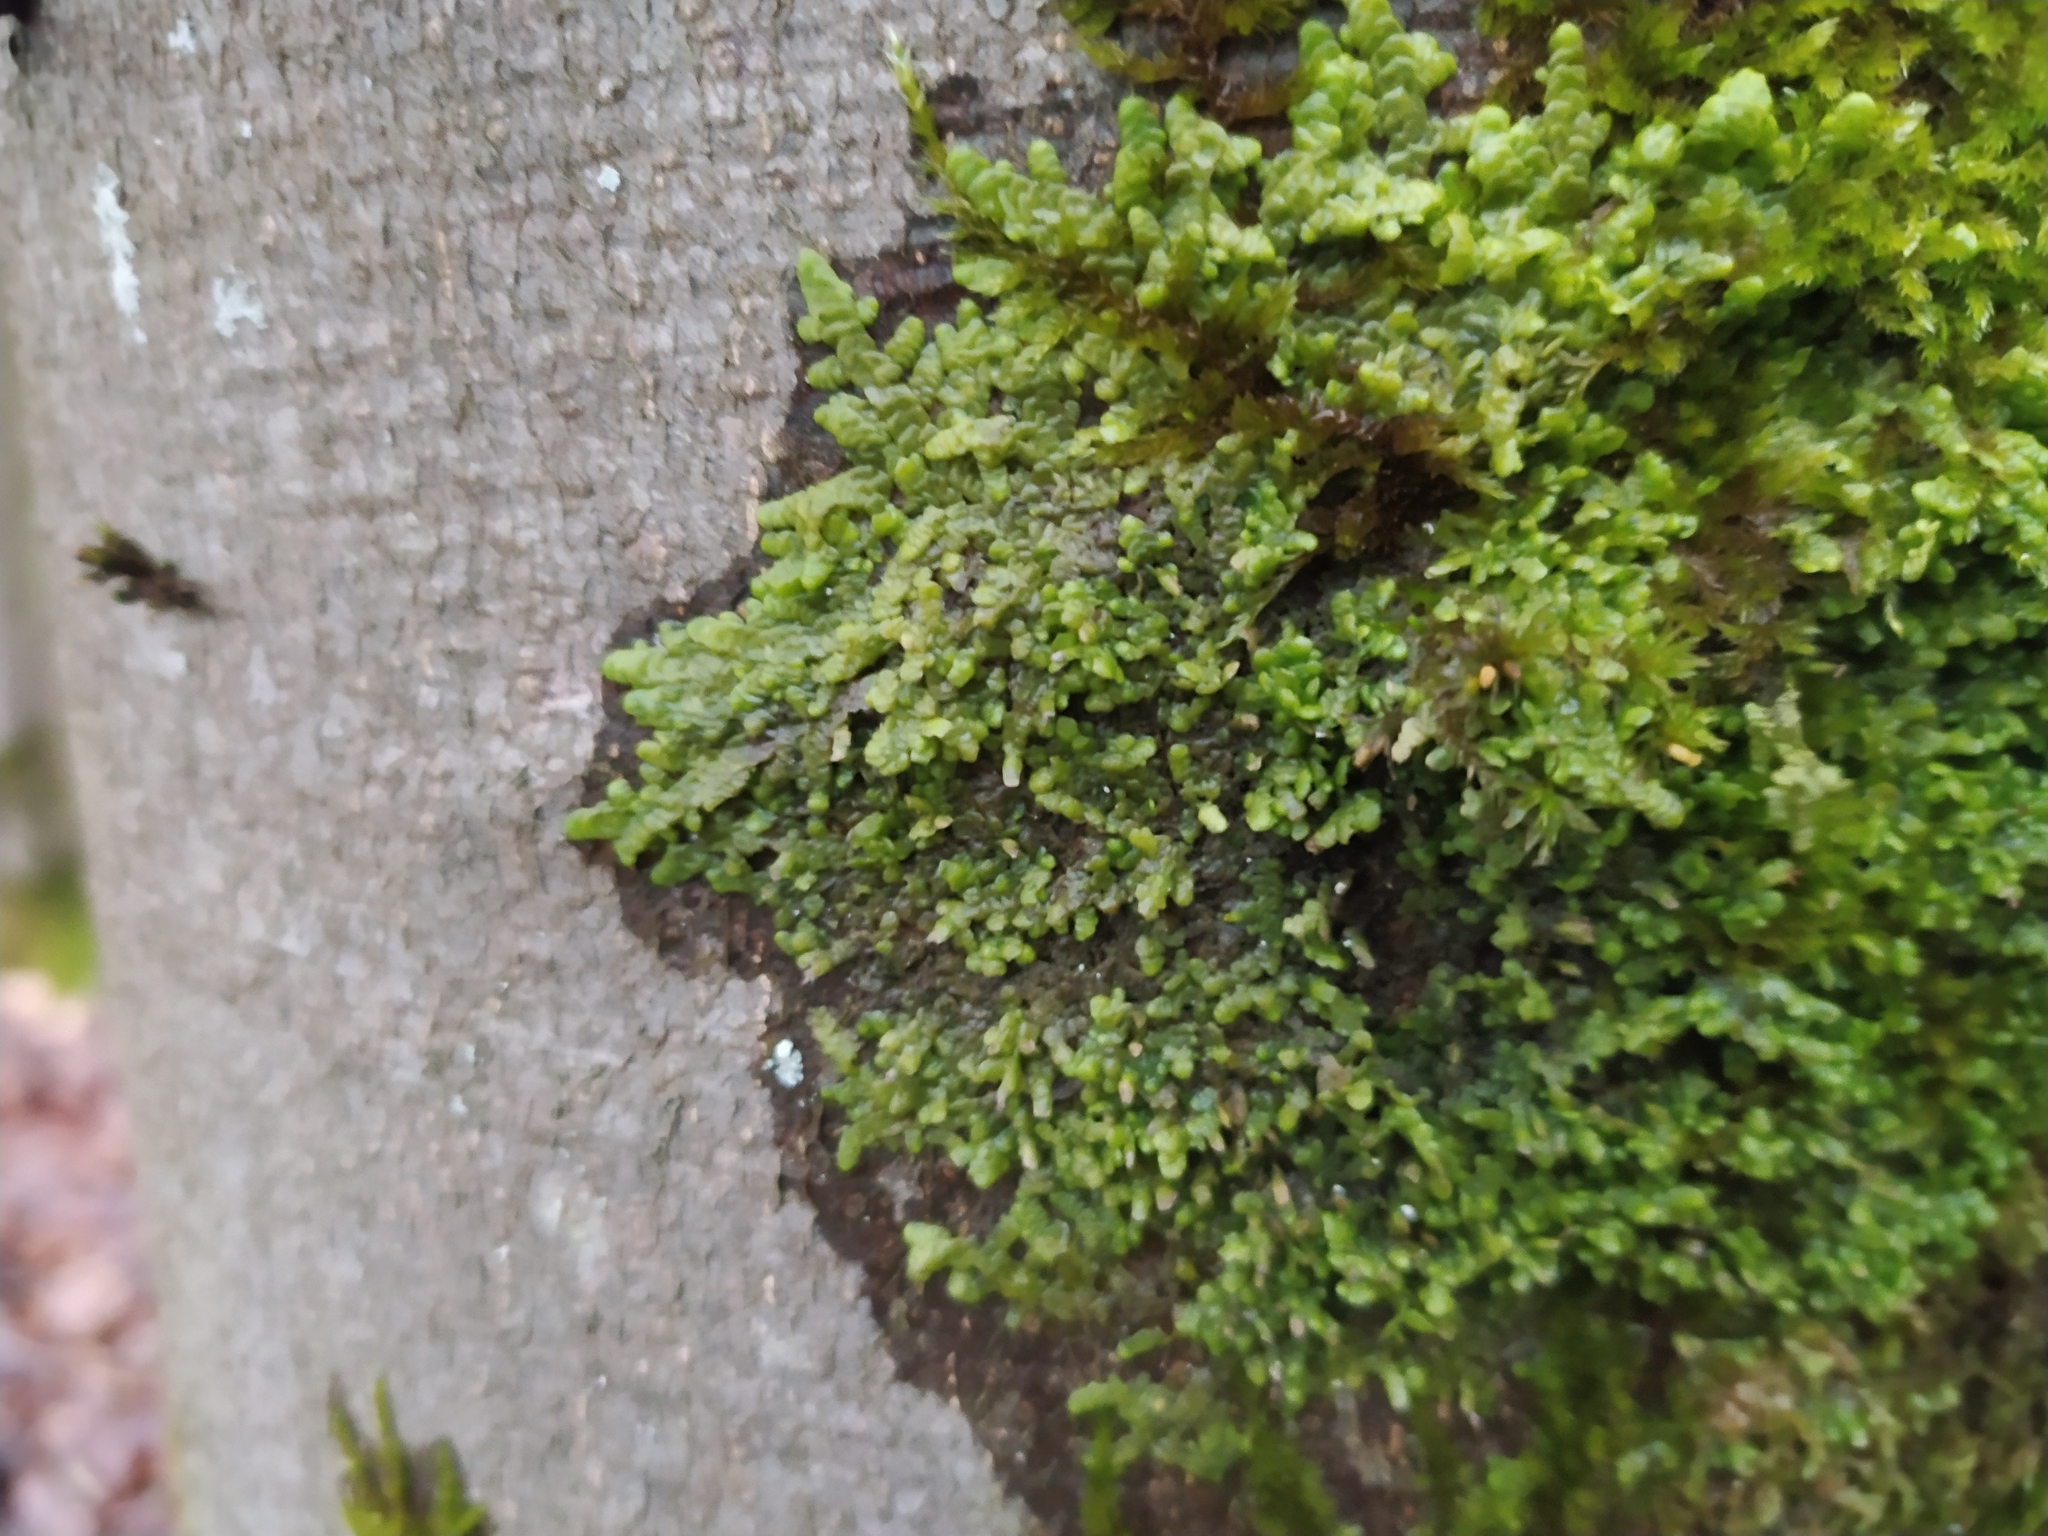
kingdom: Plantae
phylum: Marchantiophyta
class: Jungermanniopsida
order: Porellales
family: Radulaceae
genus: Radula
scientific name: Radula complanata
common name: Flat-leaved scalewort
